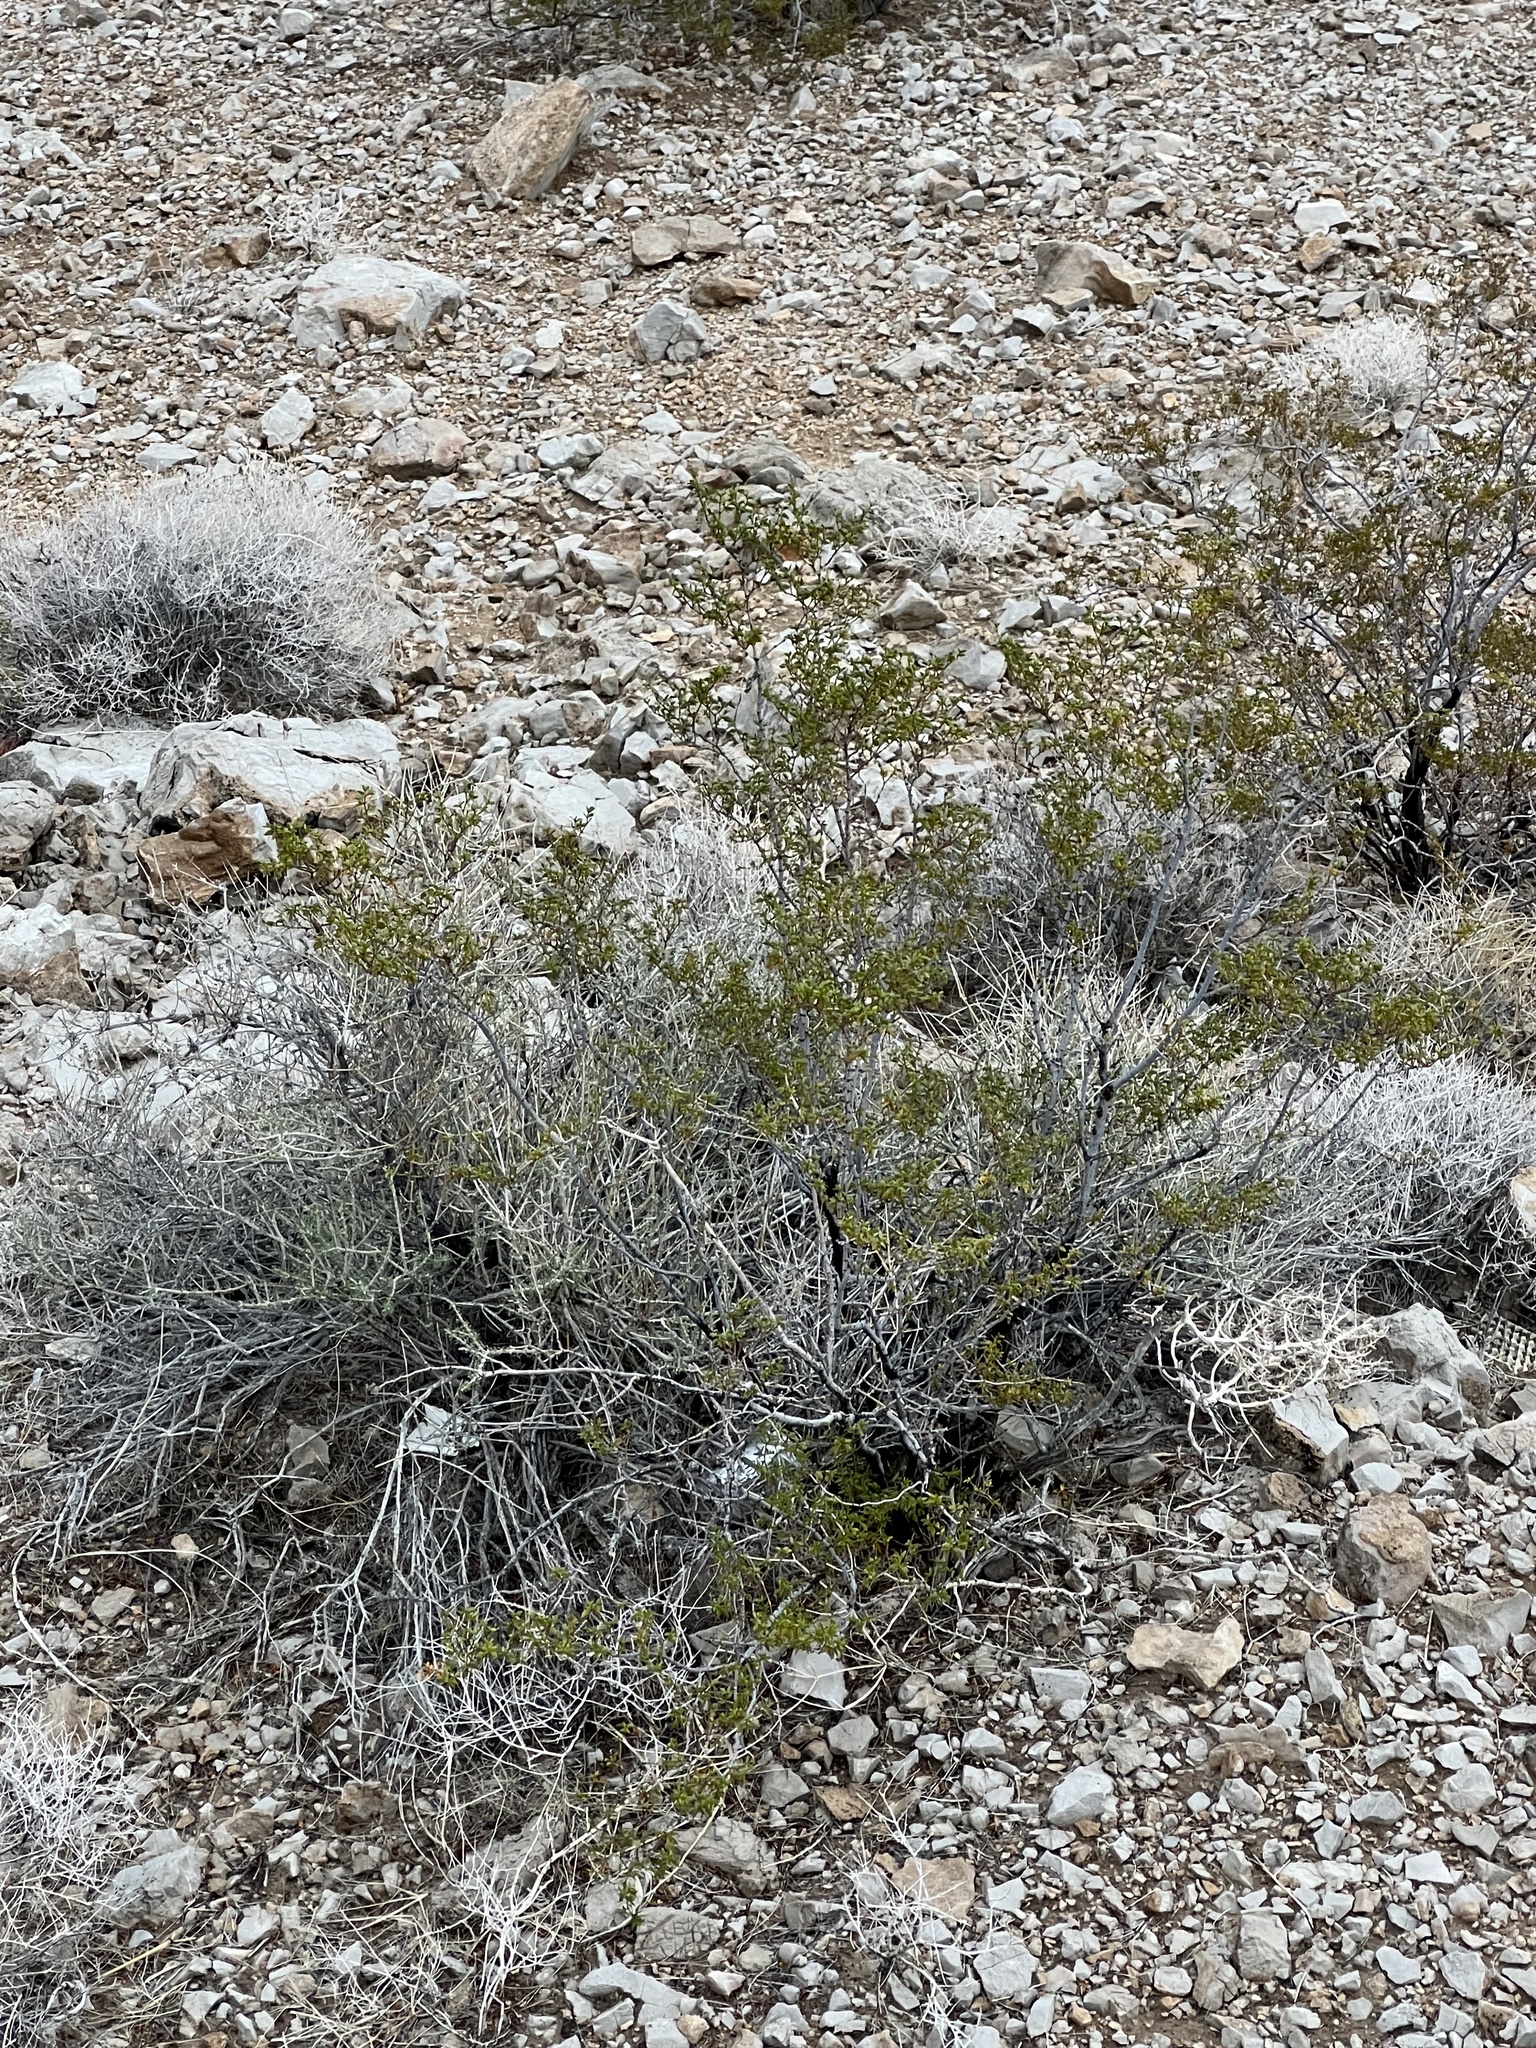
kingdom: Plantae
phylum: Tracheophyta
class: Magnoliopsida
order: Zygophyllales
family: Zygophyllaceae
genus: Larrea
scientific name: Larrea tridentata
